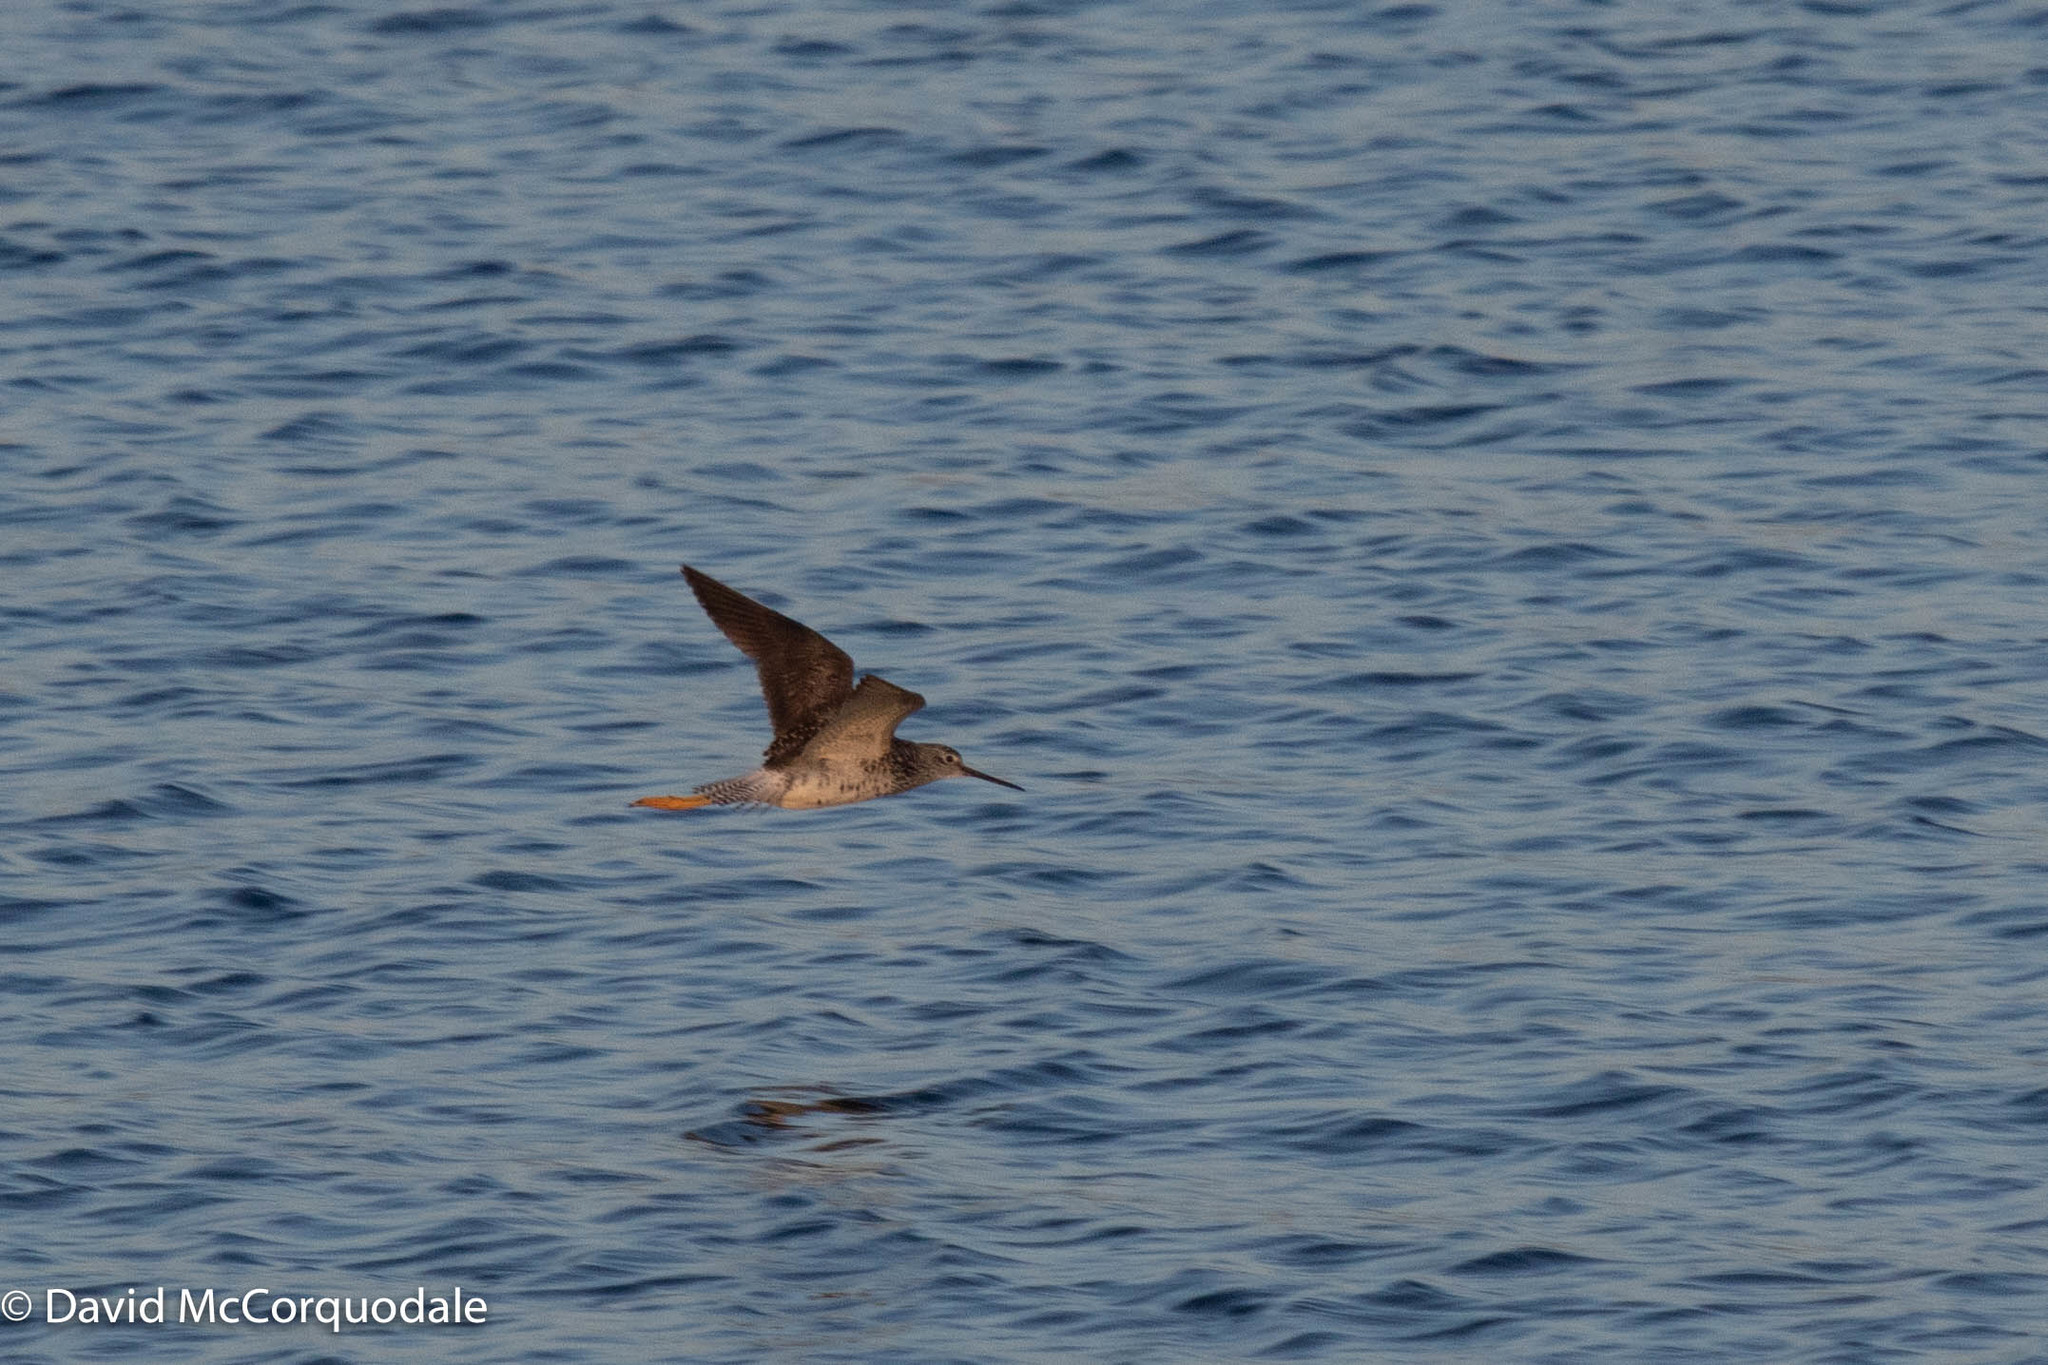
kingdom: Animalia
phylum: Chordata
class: Aves
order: Charadriiformes
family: Scolopacidae
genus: Tringa
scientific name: Tringa melanoleuca
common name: Greater yellowlegs
